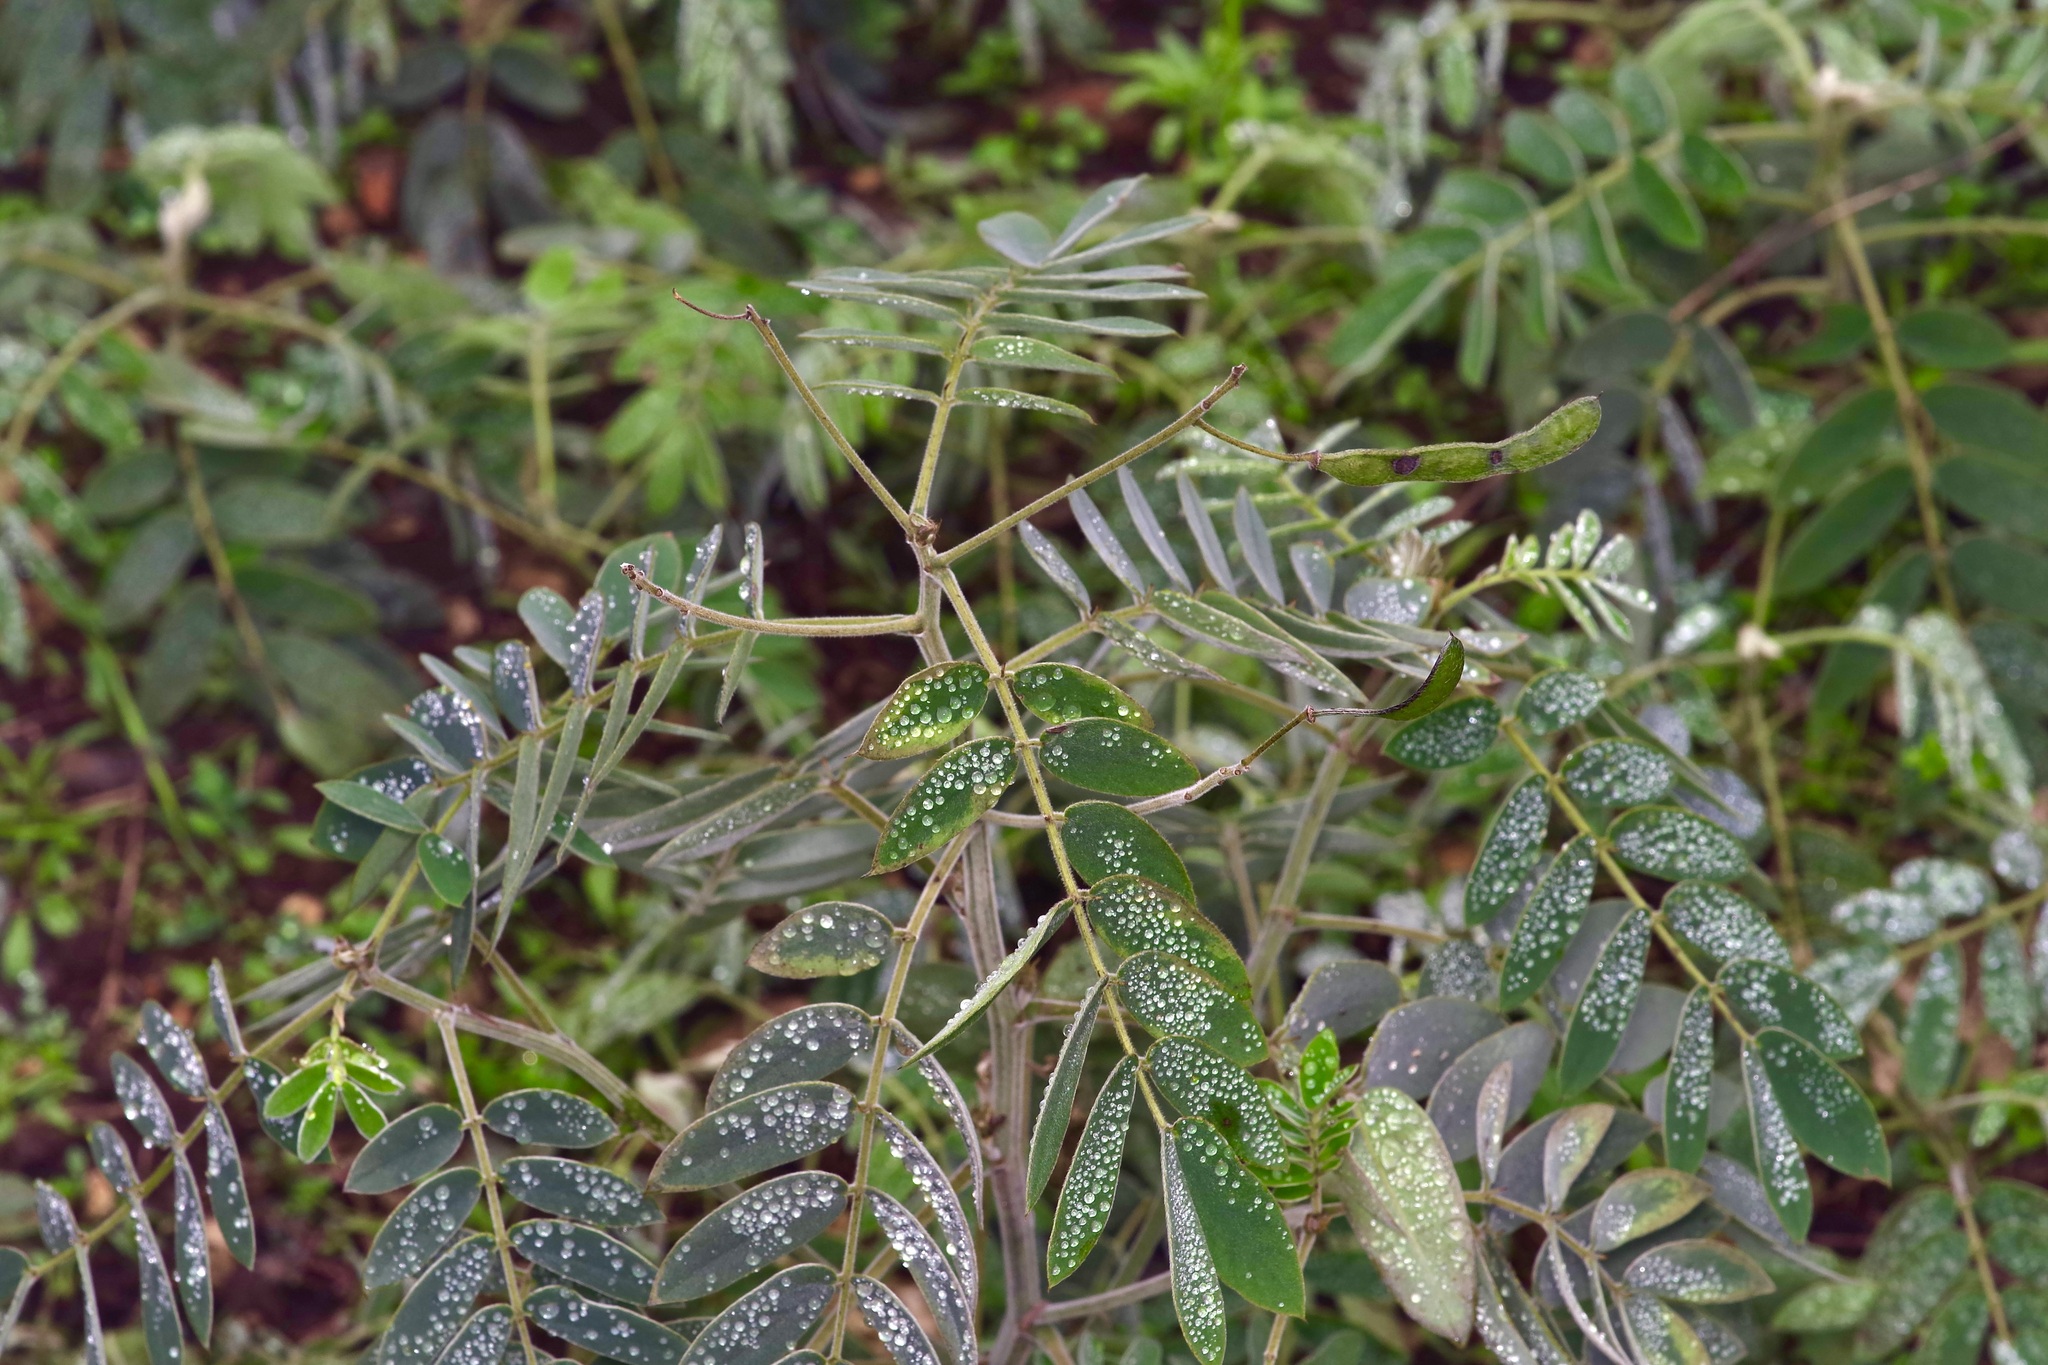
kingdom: Plantae
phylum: Tracheophyta
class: Magnoliopsida
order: Fabales
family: Fabaceae
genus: Senna
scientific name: Senna lindheimeriana
